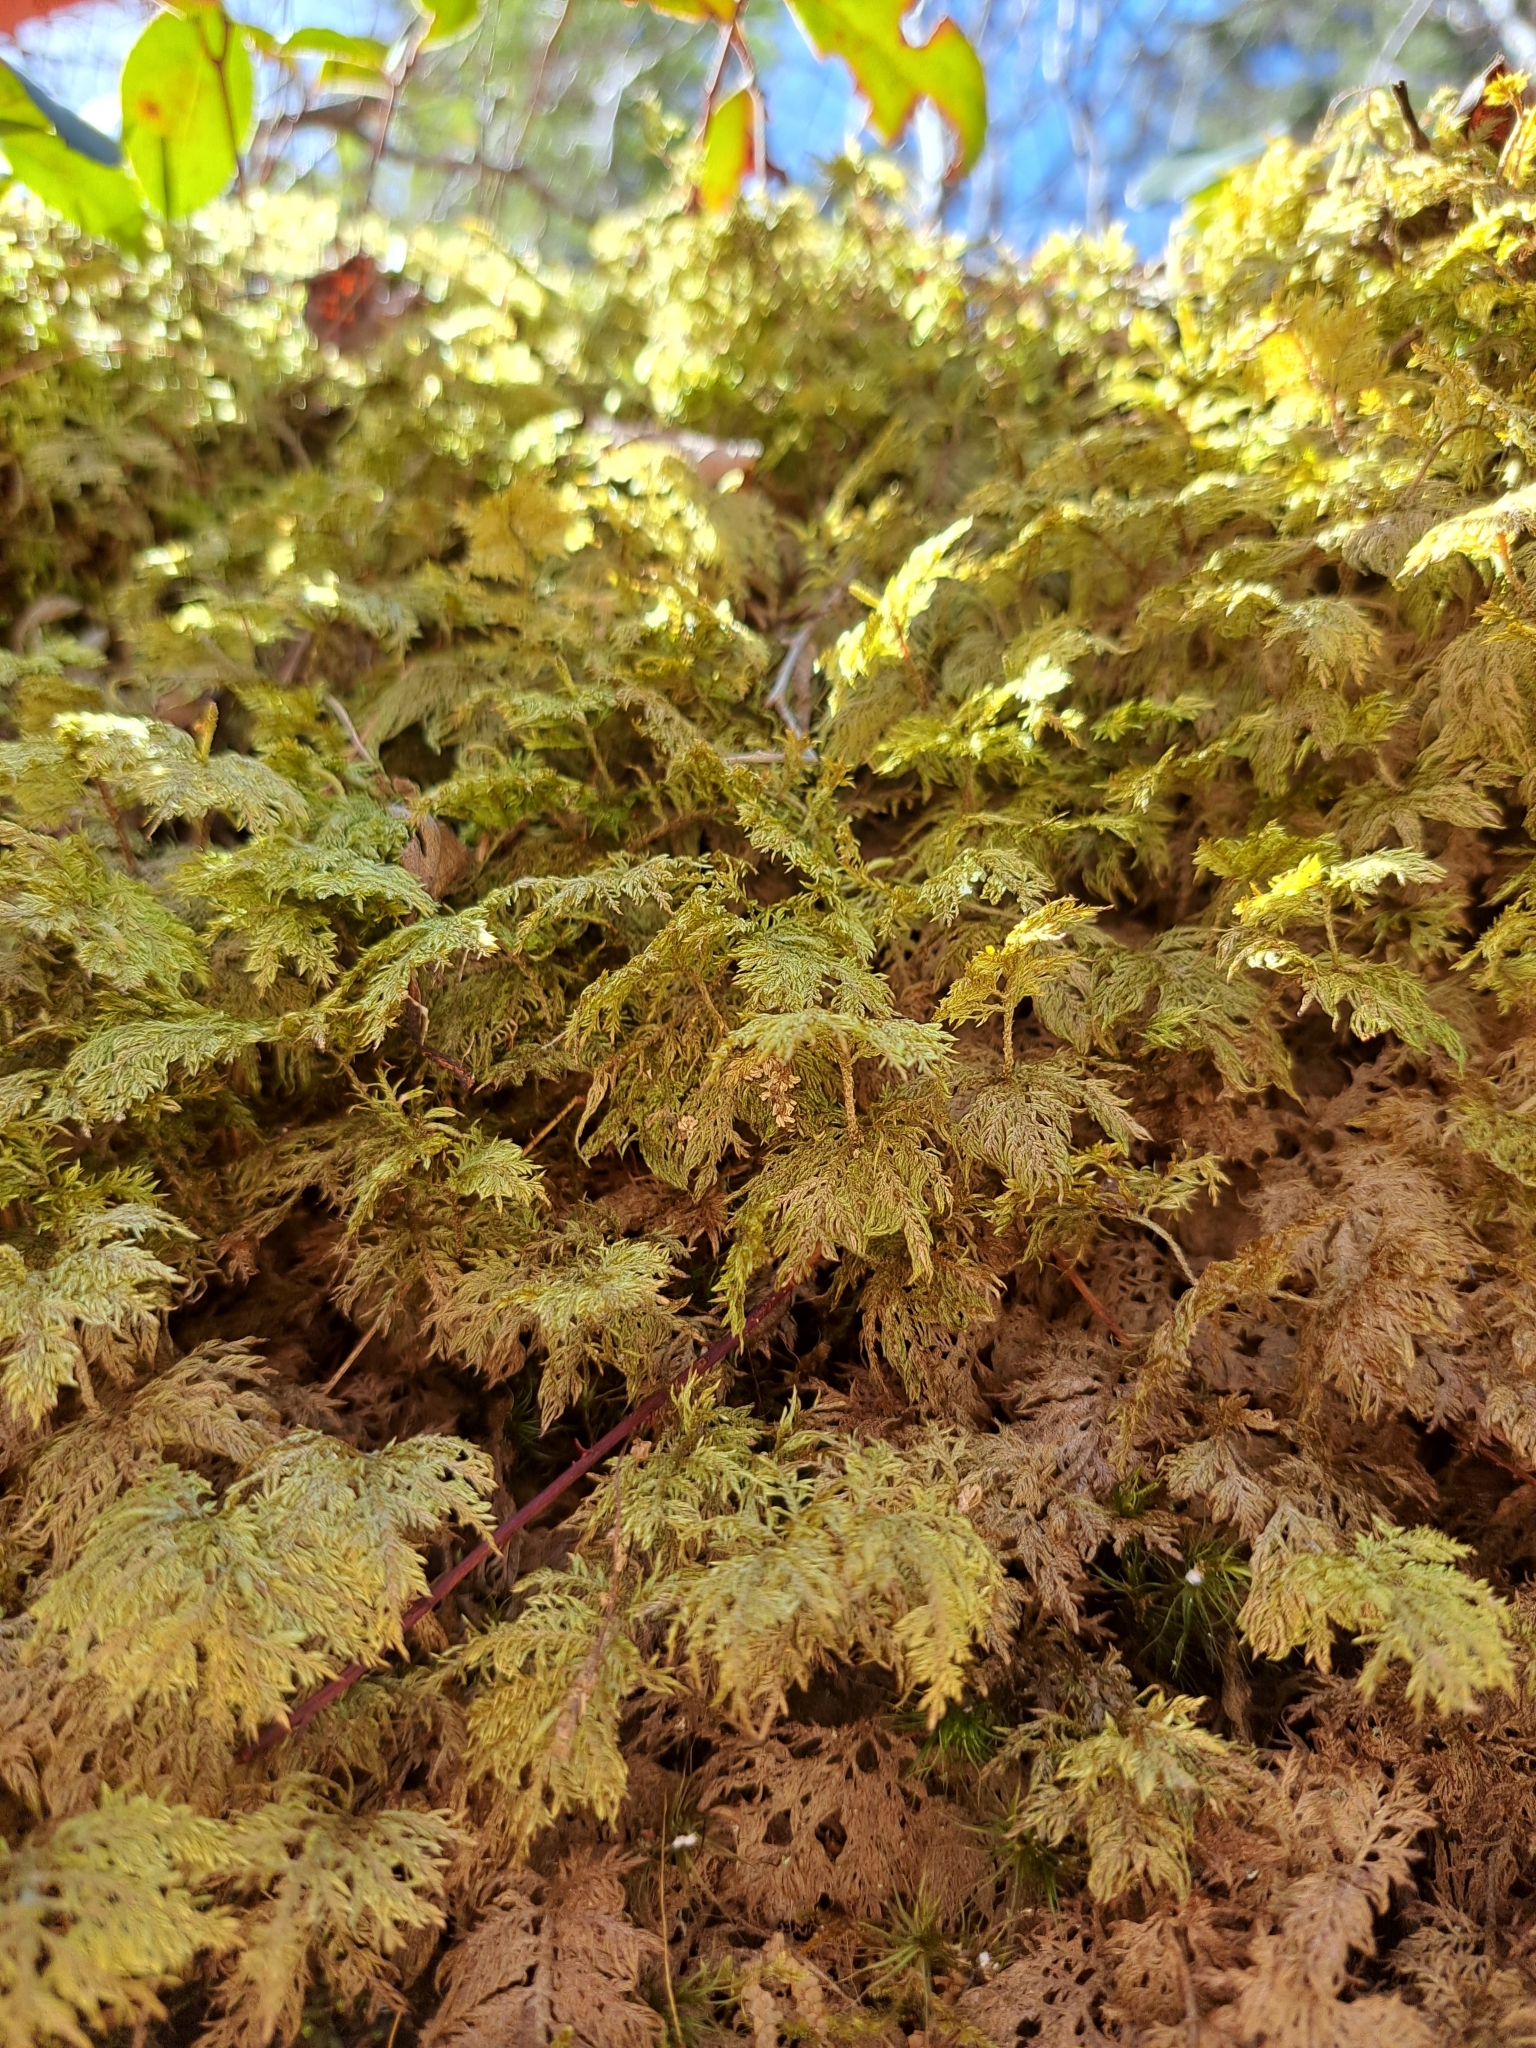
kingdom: Plantae
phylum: Bryophyta
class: Bryopsida
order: Hypnales
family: Hylocomiaceae
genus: Hylocomium
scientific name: Hylocomium splendens
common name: Stairstep moss
